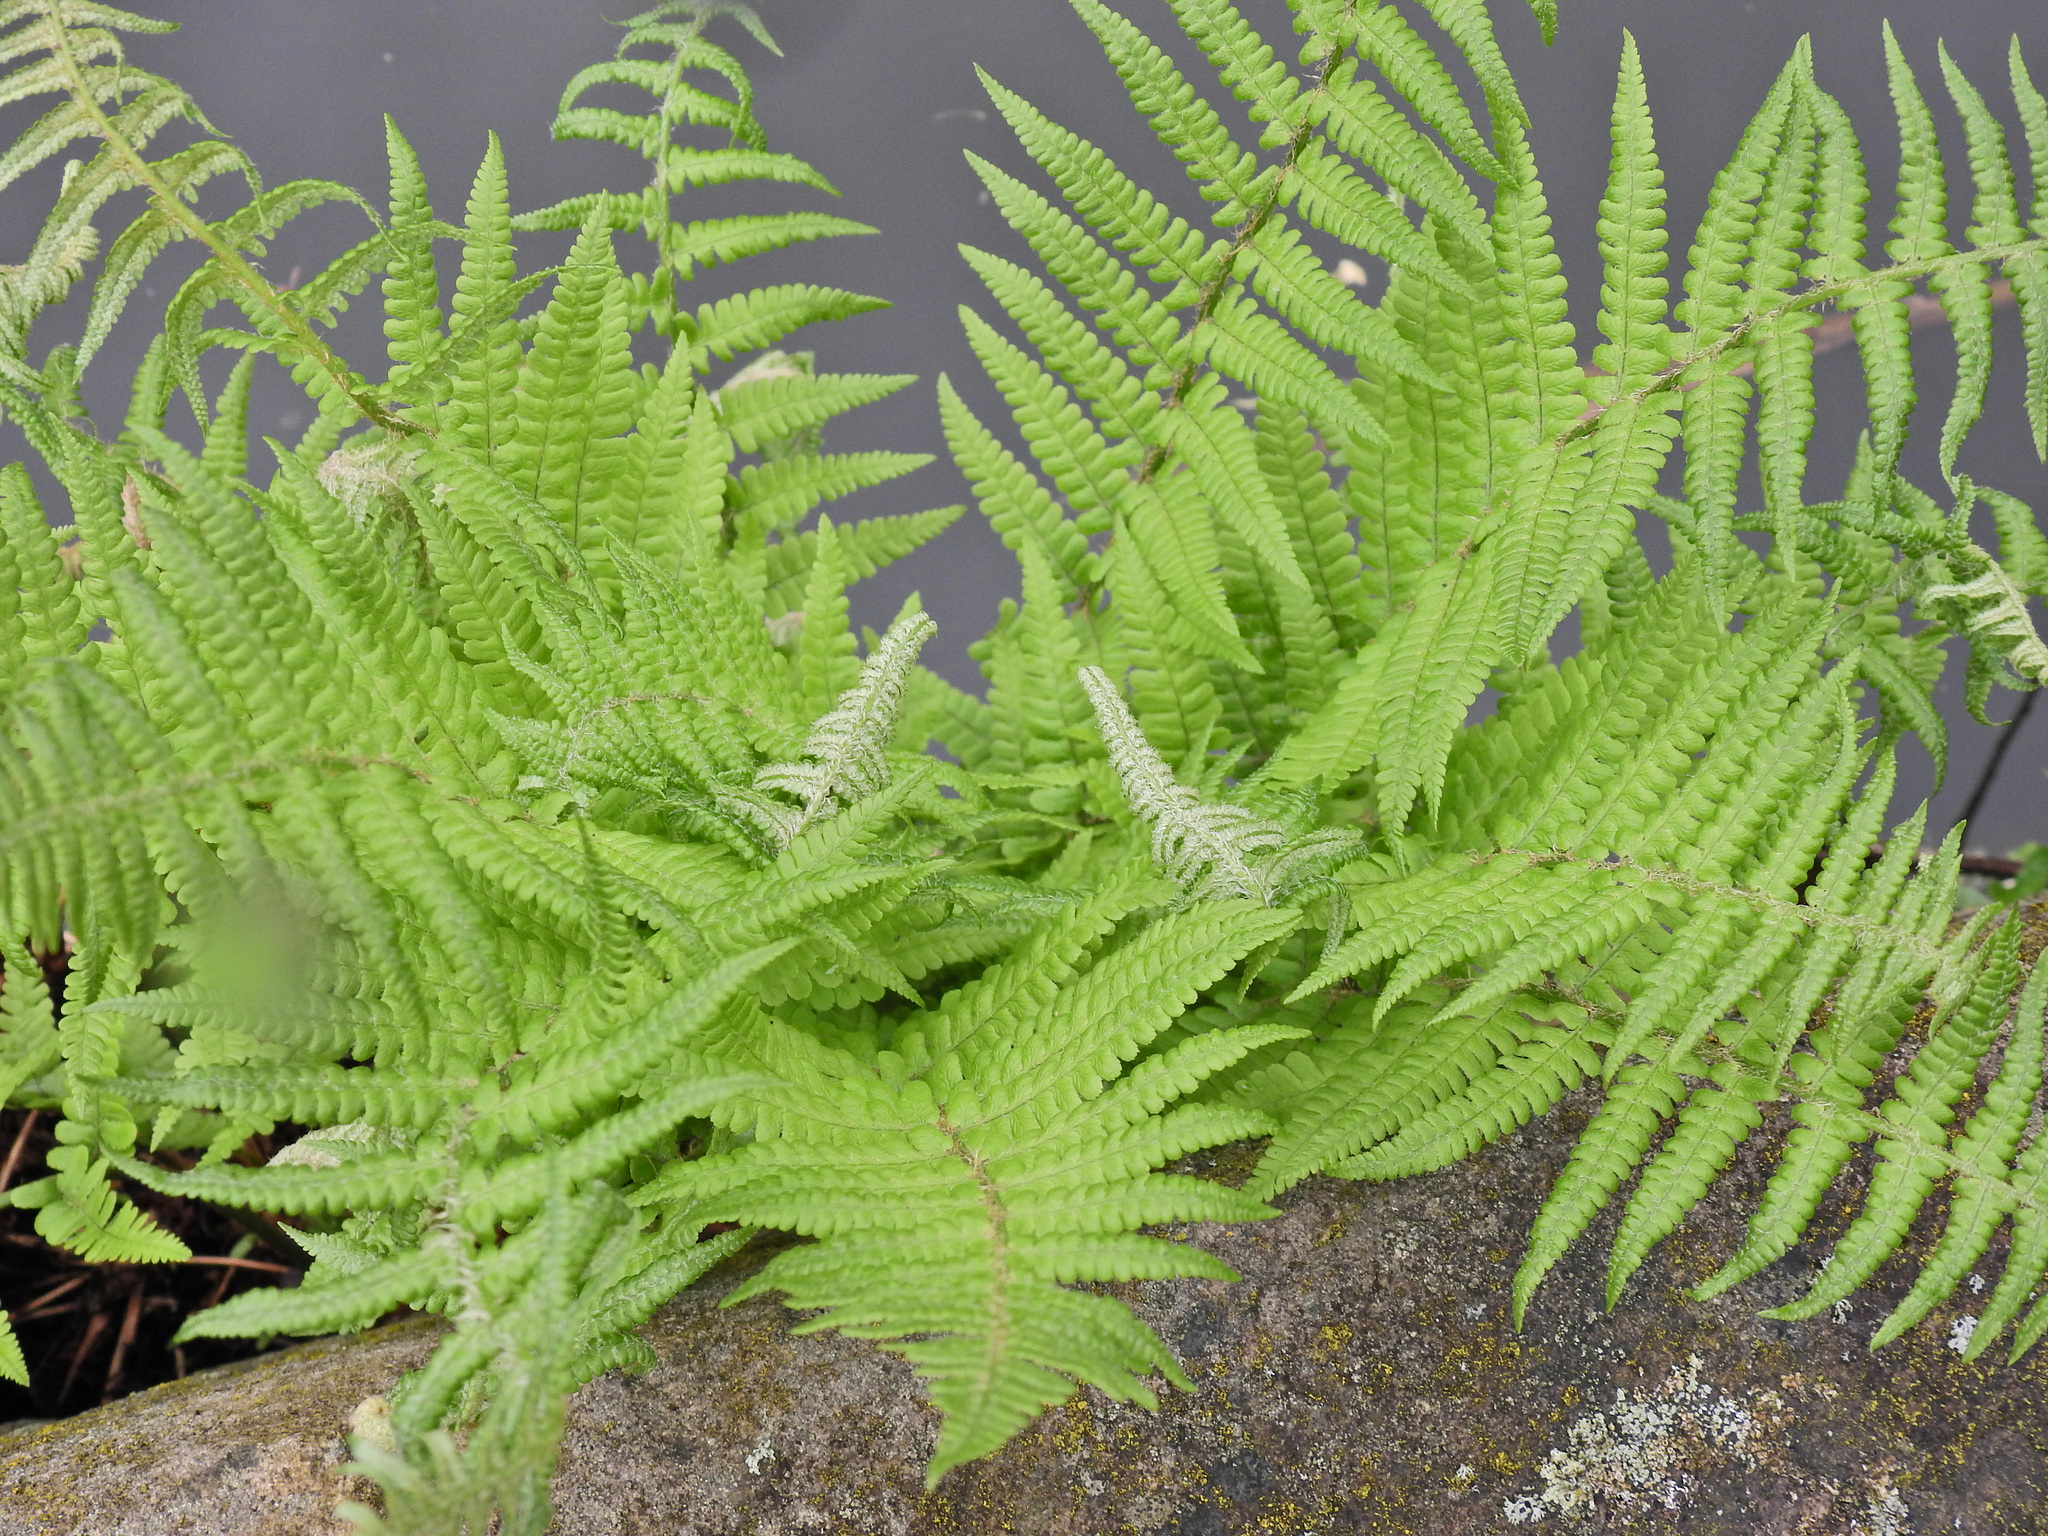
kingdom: Plantae
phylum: Tracheophyta
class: Polypodiopsida
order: Polypodiales
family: Dryopteridaceae
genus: Dryopteris
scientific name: Dryopteris filix-mas
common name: Male fern
